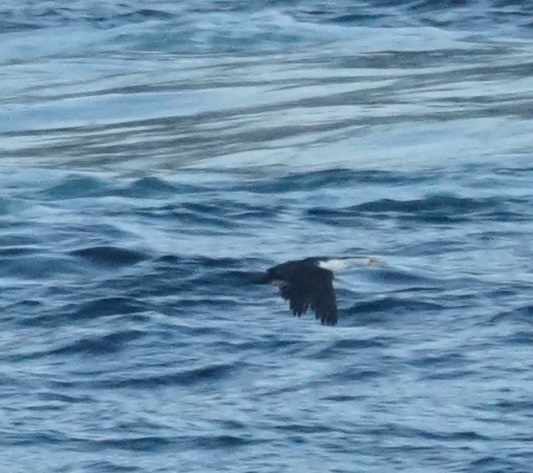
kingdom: Animalia
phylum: Chordata
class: Aves
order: Suliformes
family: Phalacrocoracidae
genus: Phalacrocorax
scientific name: Phalacrocorax varius
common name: Pied cormorant
